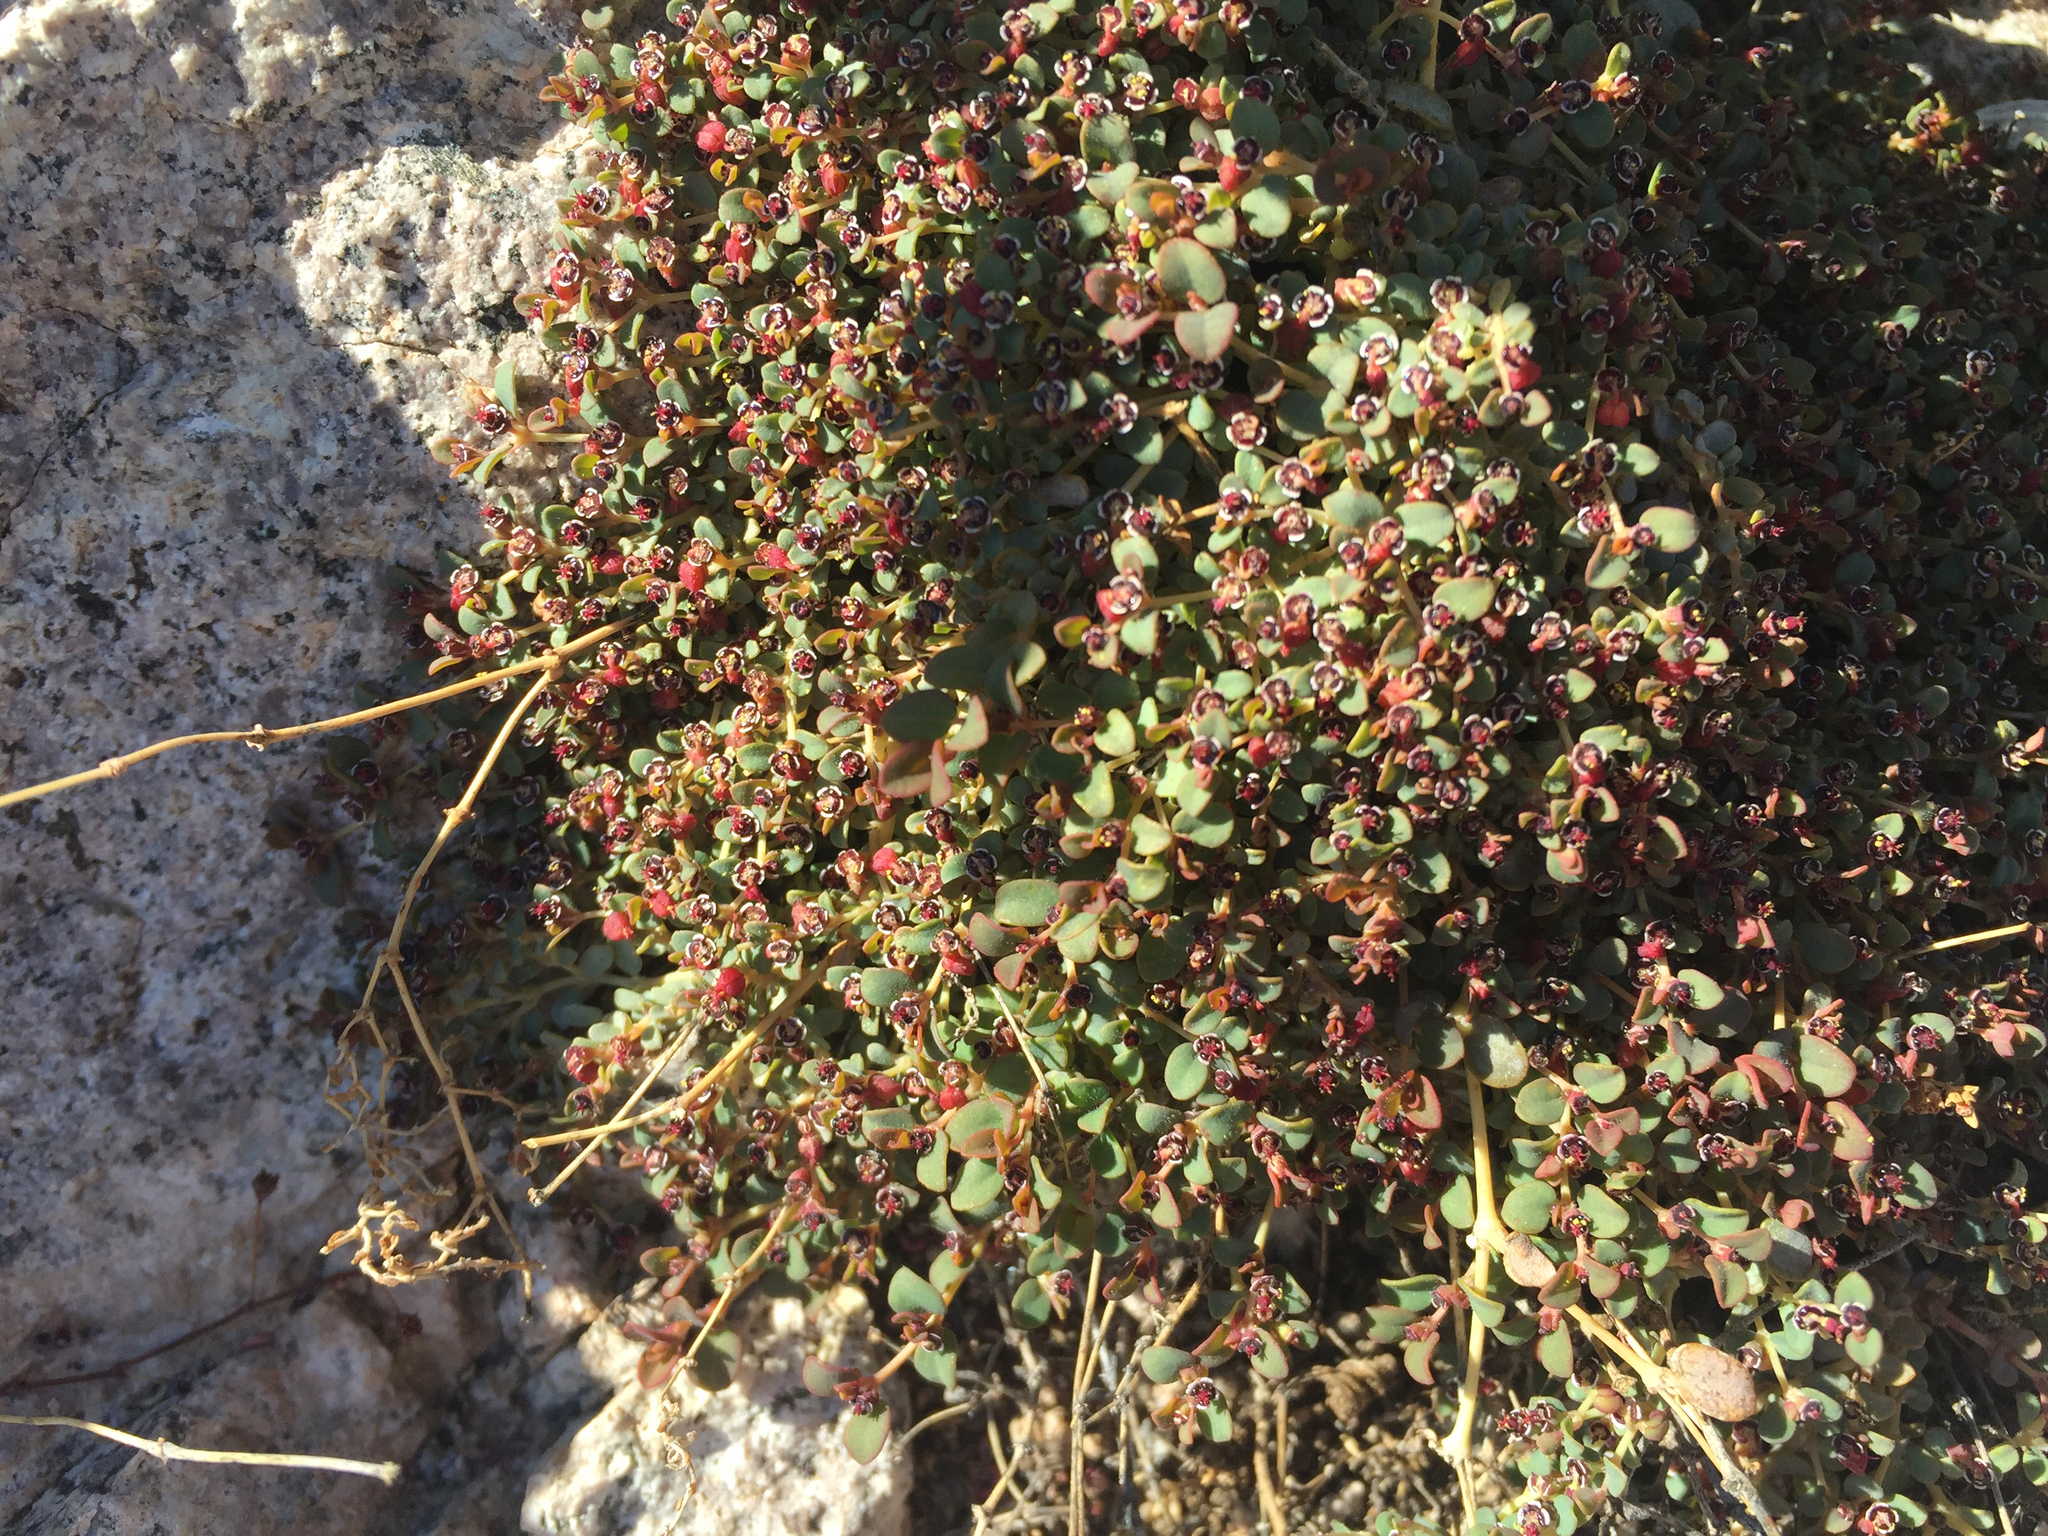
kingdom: Plantae
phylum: Tracheophyta
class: Magnoliopsida
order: Malpighiales
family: Euphorbiaceae
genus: Euphorbia
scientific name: Euphorbia polycarpa
